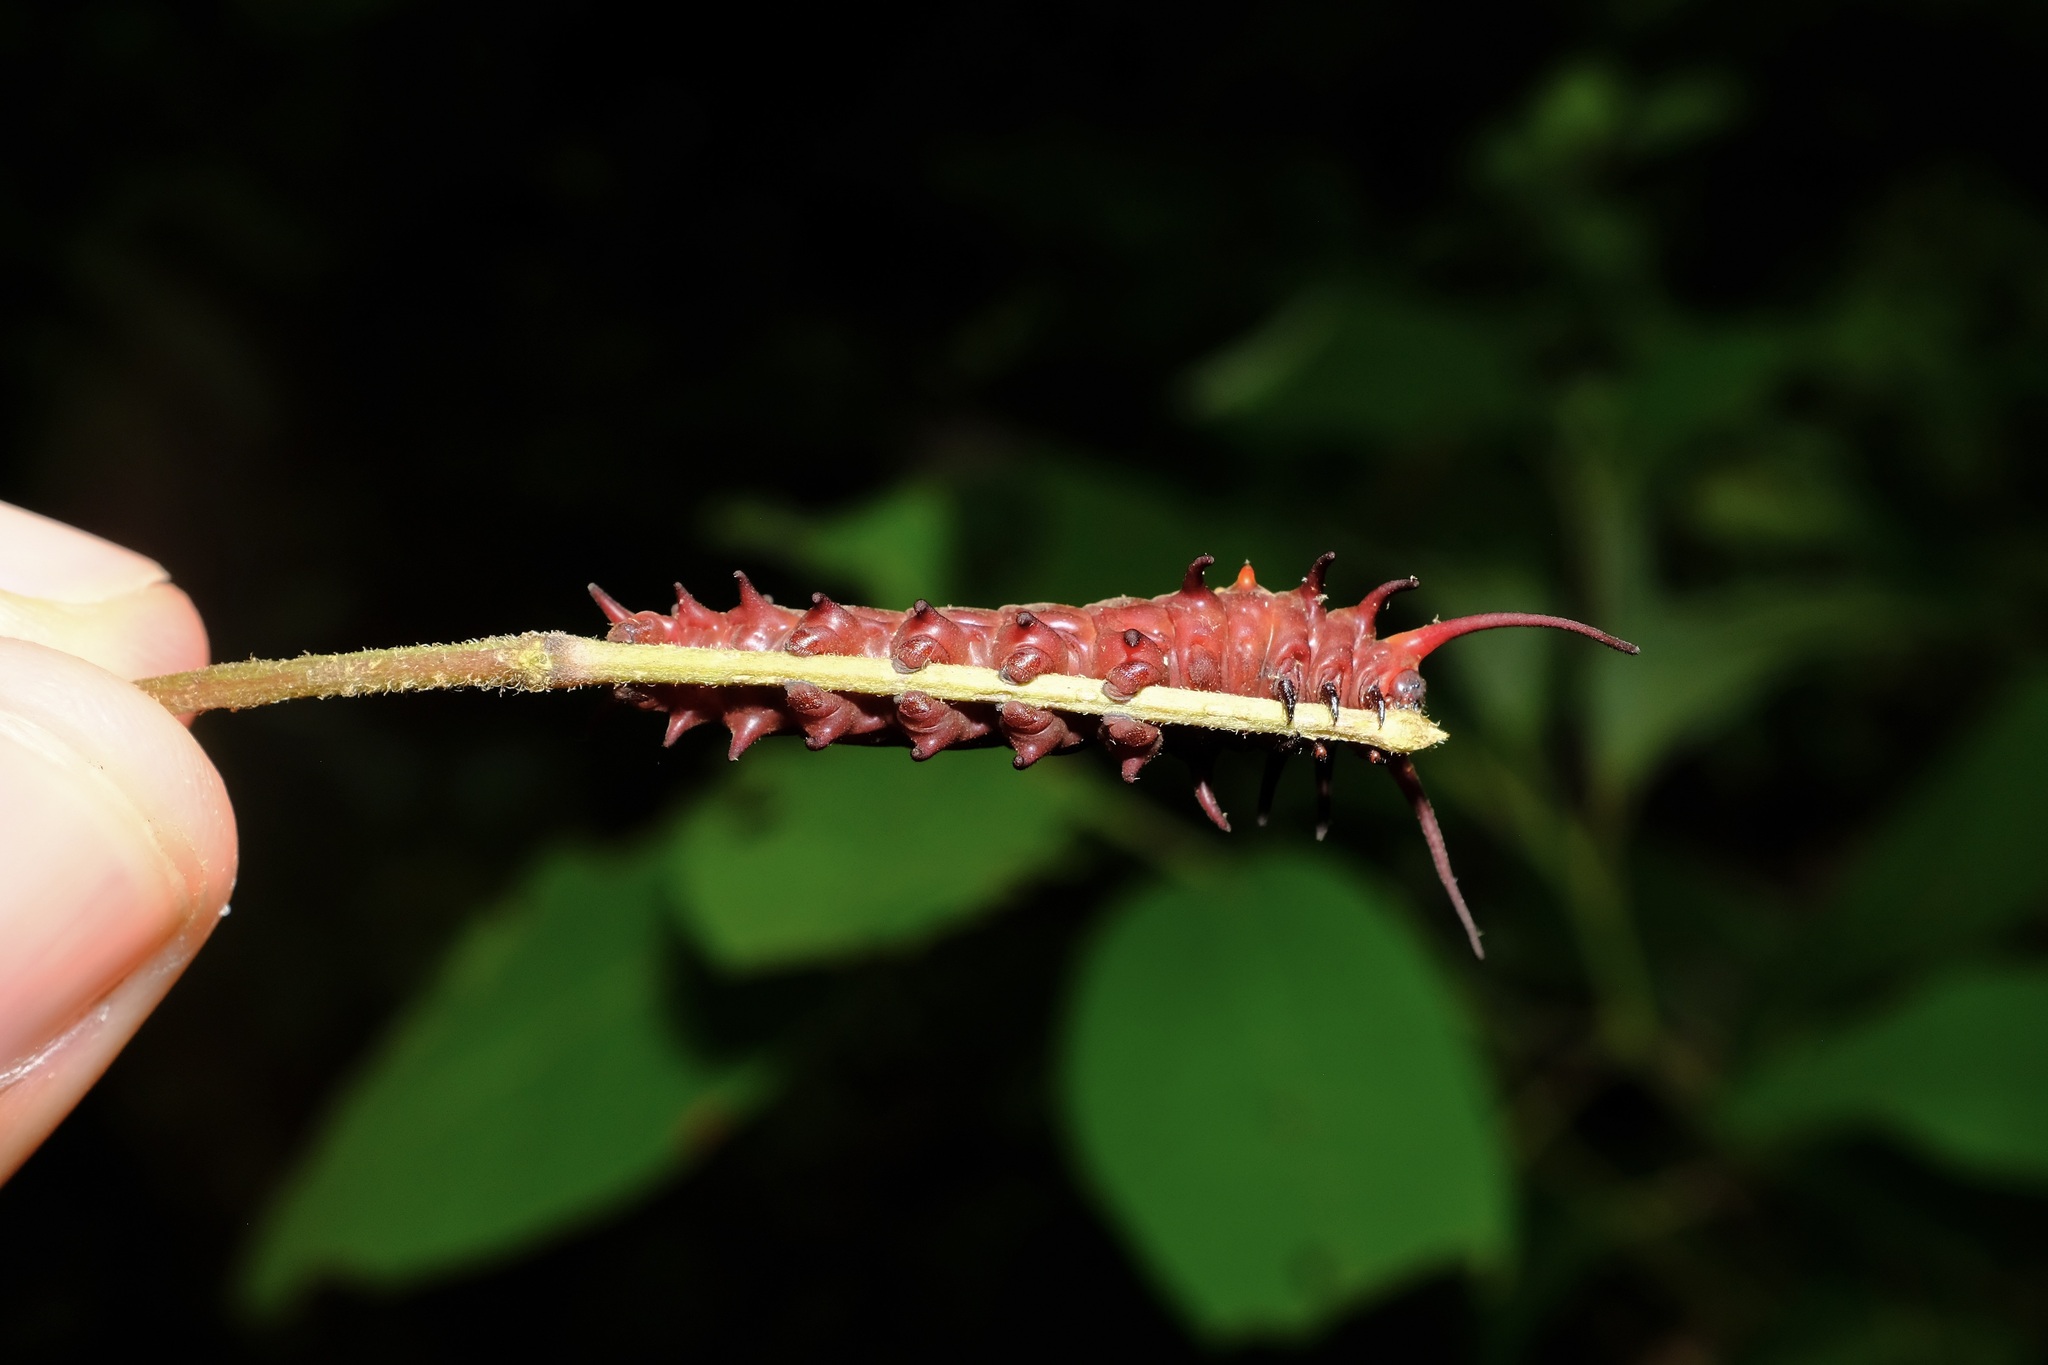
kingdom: Animalia
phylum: Arthropoda
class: Insecta
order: Lepidoptera
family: Papilionidae
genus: Battus
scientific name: Battus philenor
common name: Pipevine swallowtail
